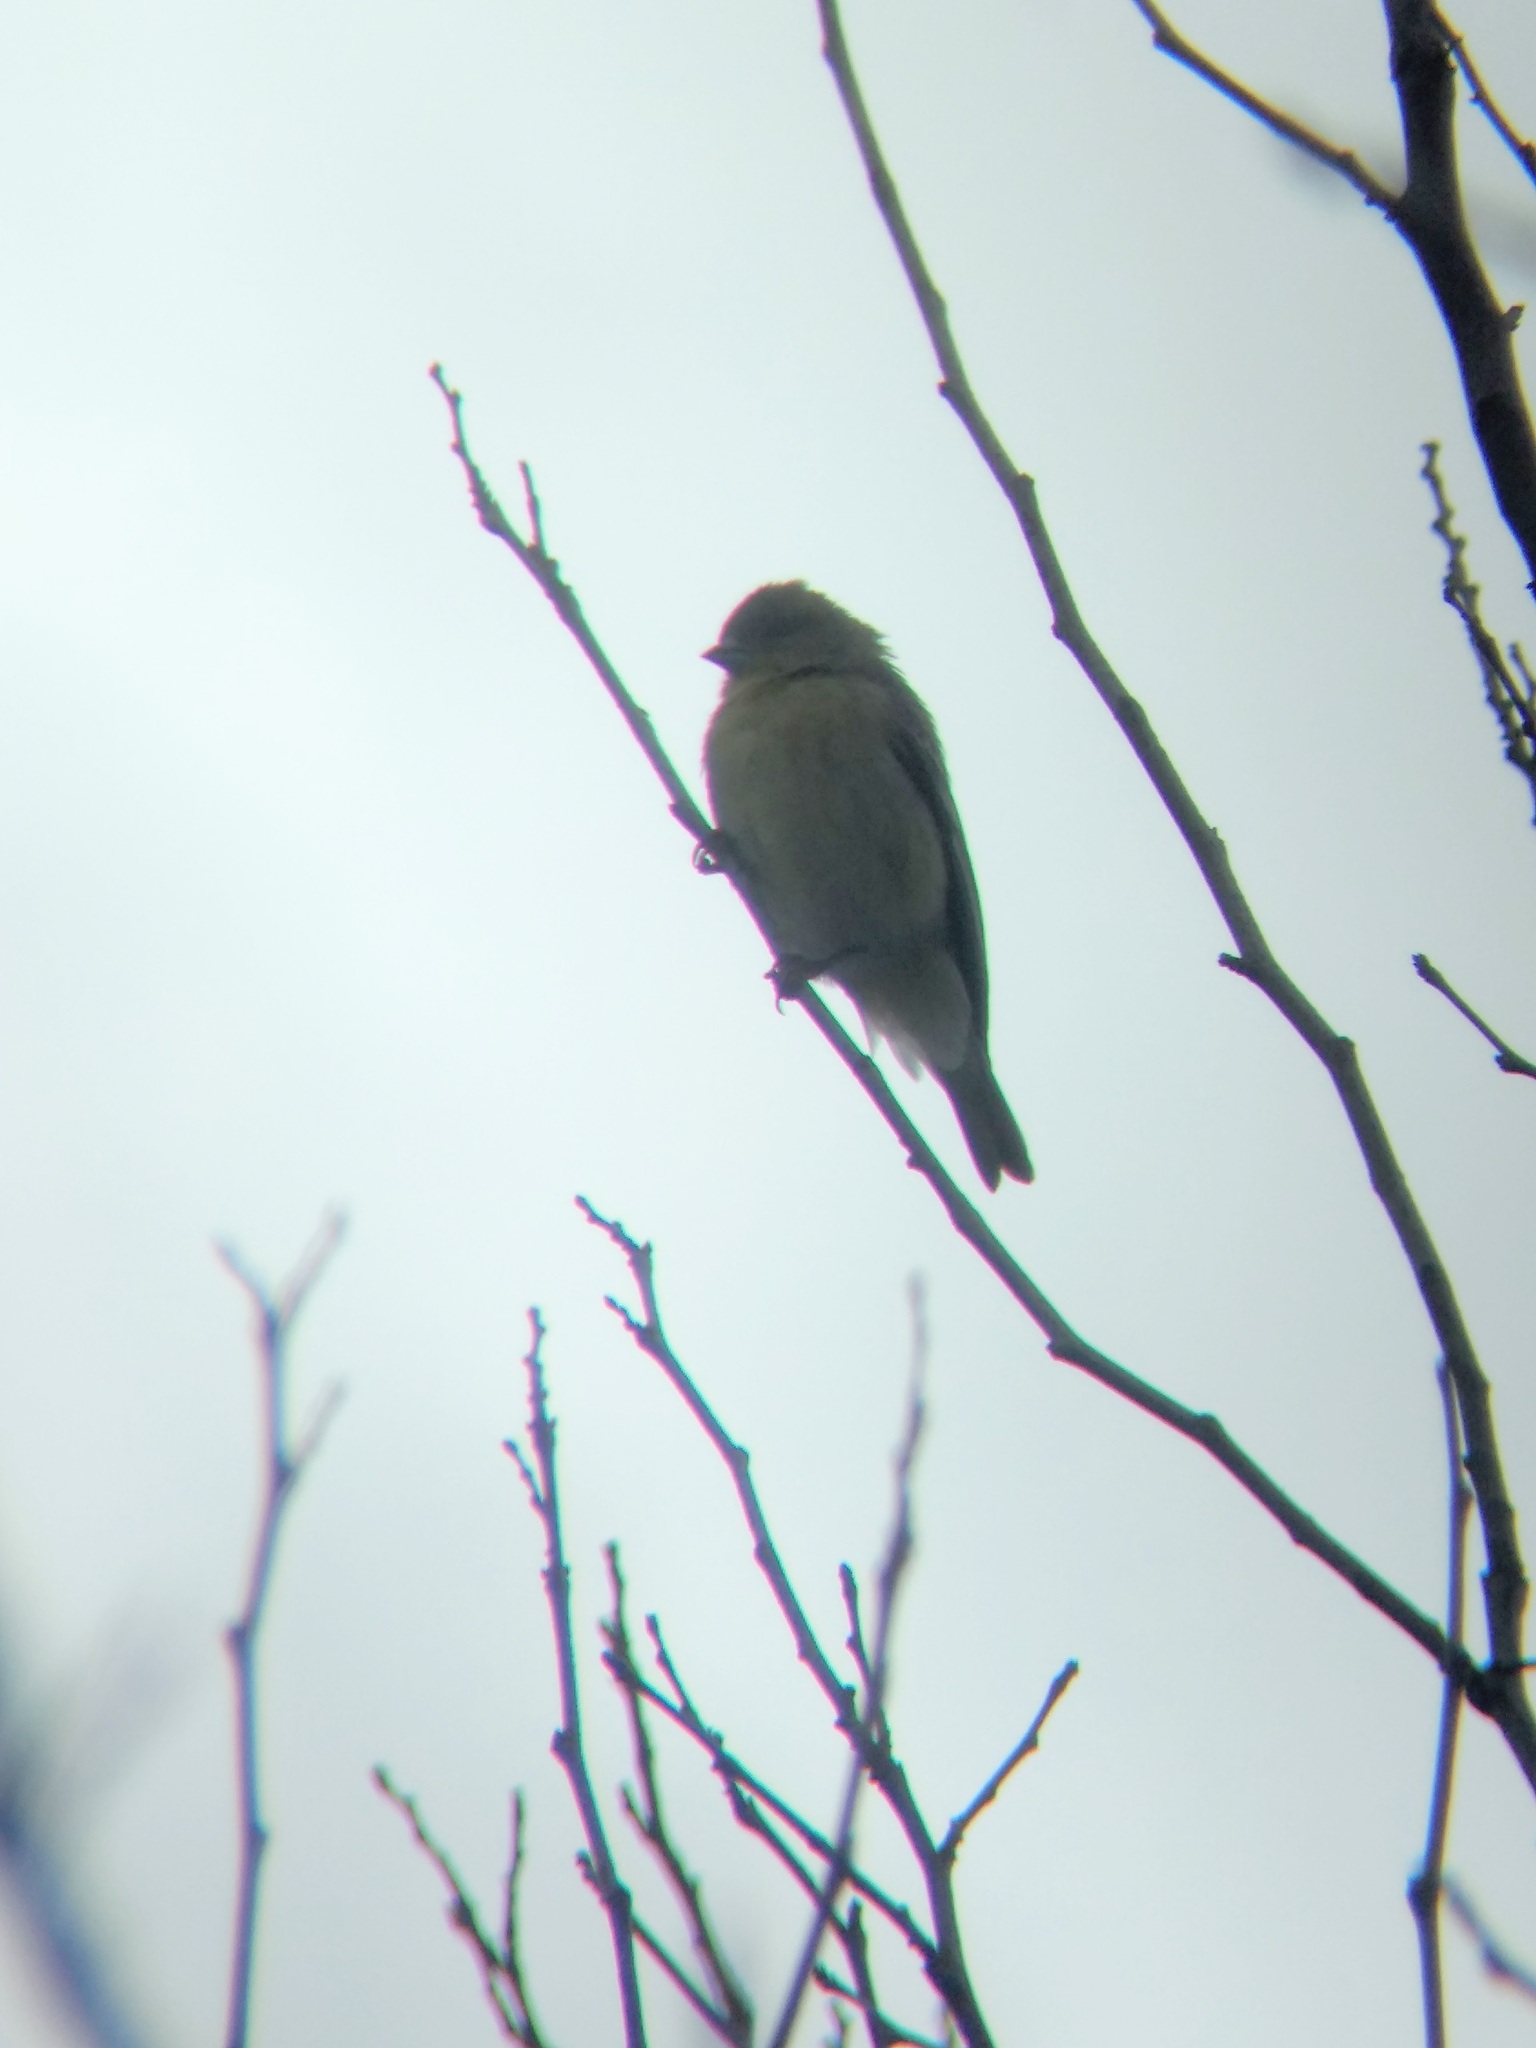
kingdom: Animalia
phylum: Chordata
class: Aves
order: Passeriformes
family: Fringillidae
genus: Spinus
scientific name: Spinus psaltria
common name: Lesser goldfinch
